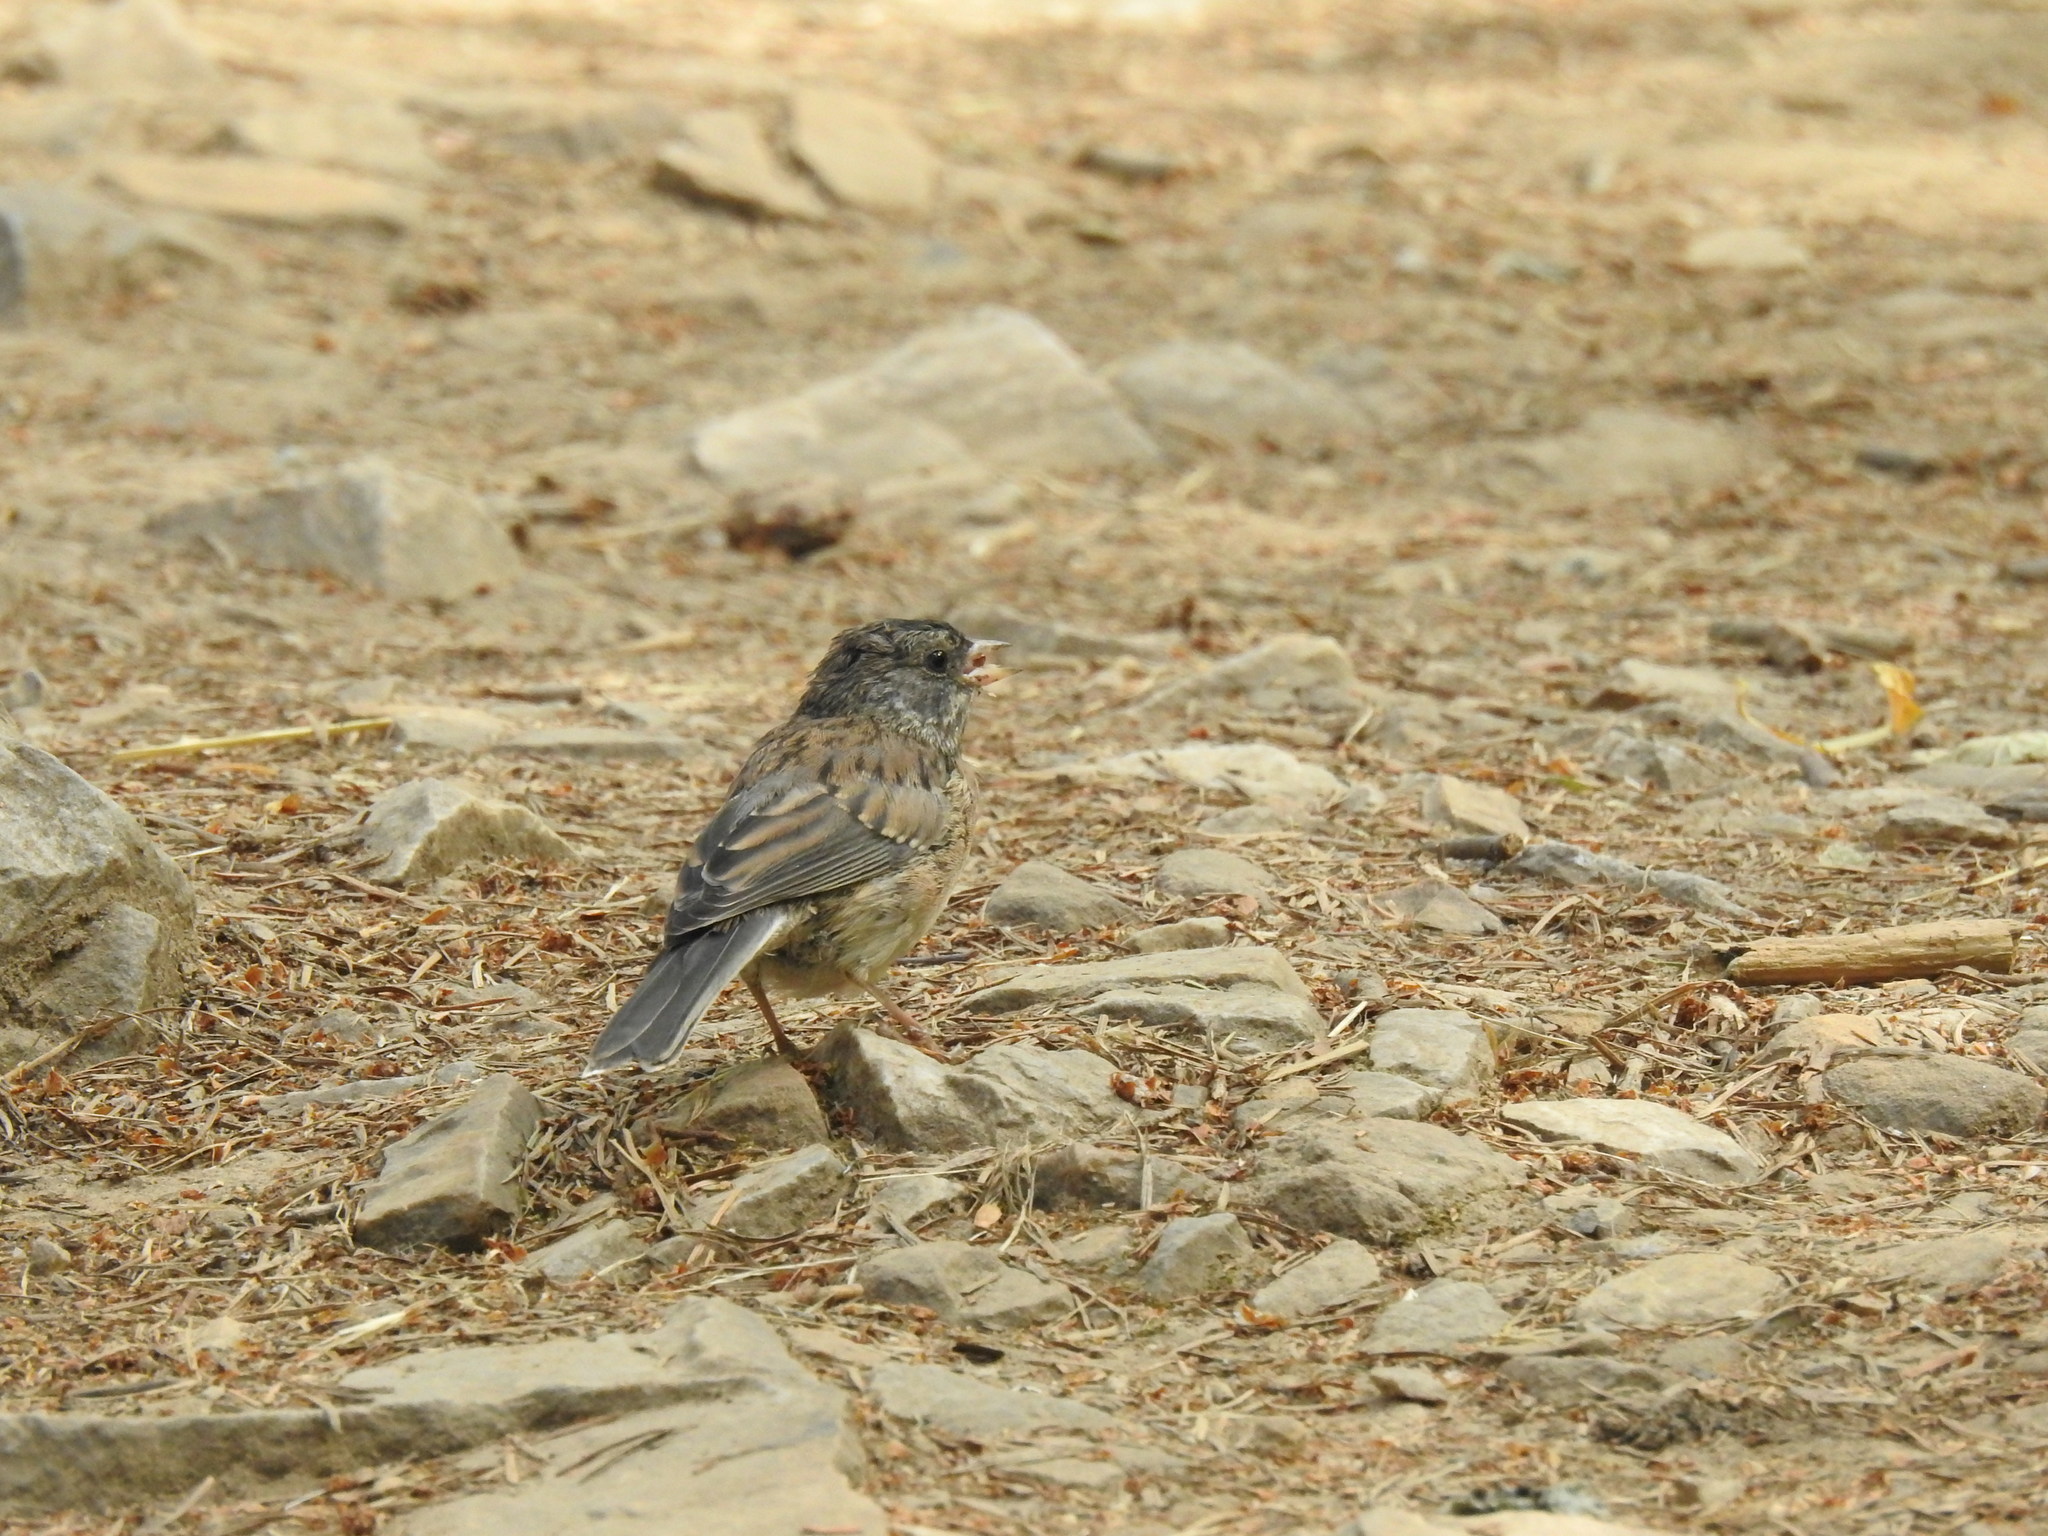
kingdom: Animalia
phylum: Chordata
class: Aves
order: Passeriformes
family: Passerellidae
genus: Junco
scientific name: Junco hyemalis
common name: Dark-eyed junco
